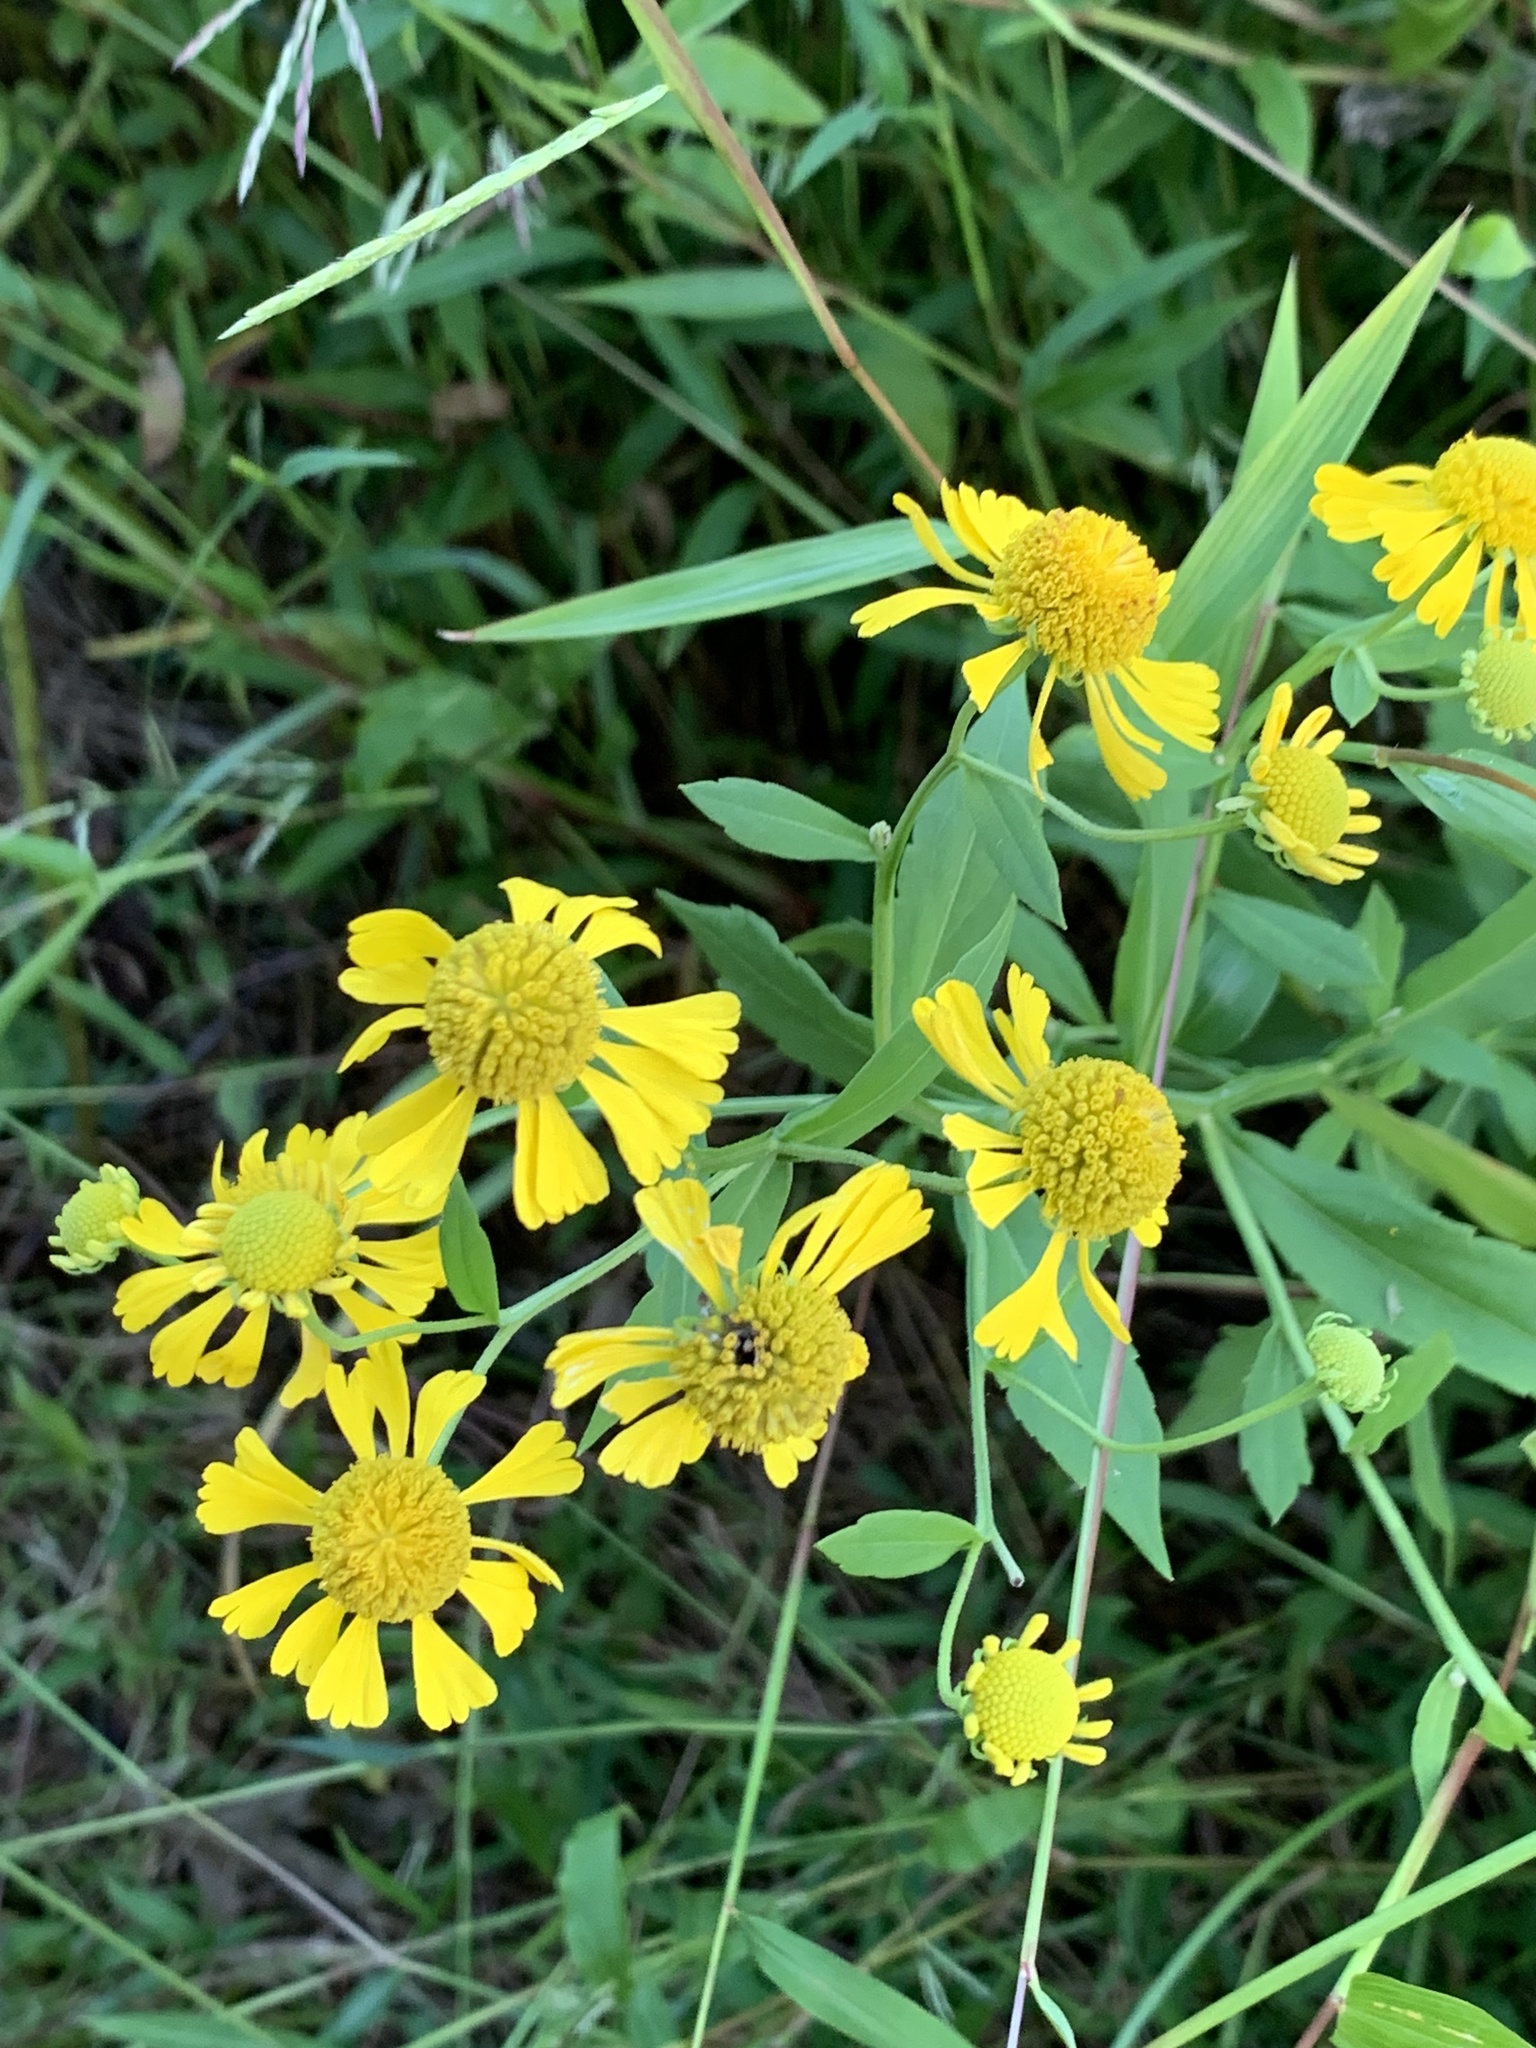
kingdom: Plantae
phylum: Tracheophyta
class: Magnoliopsida
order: Asterales
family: Asteraceae
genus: Helenium
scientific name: Helenium autumnale
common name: Sneezeweed
